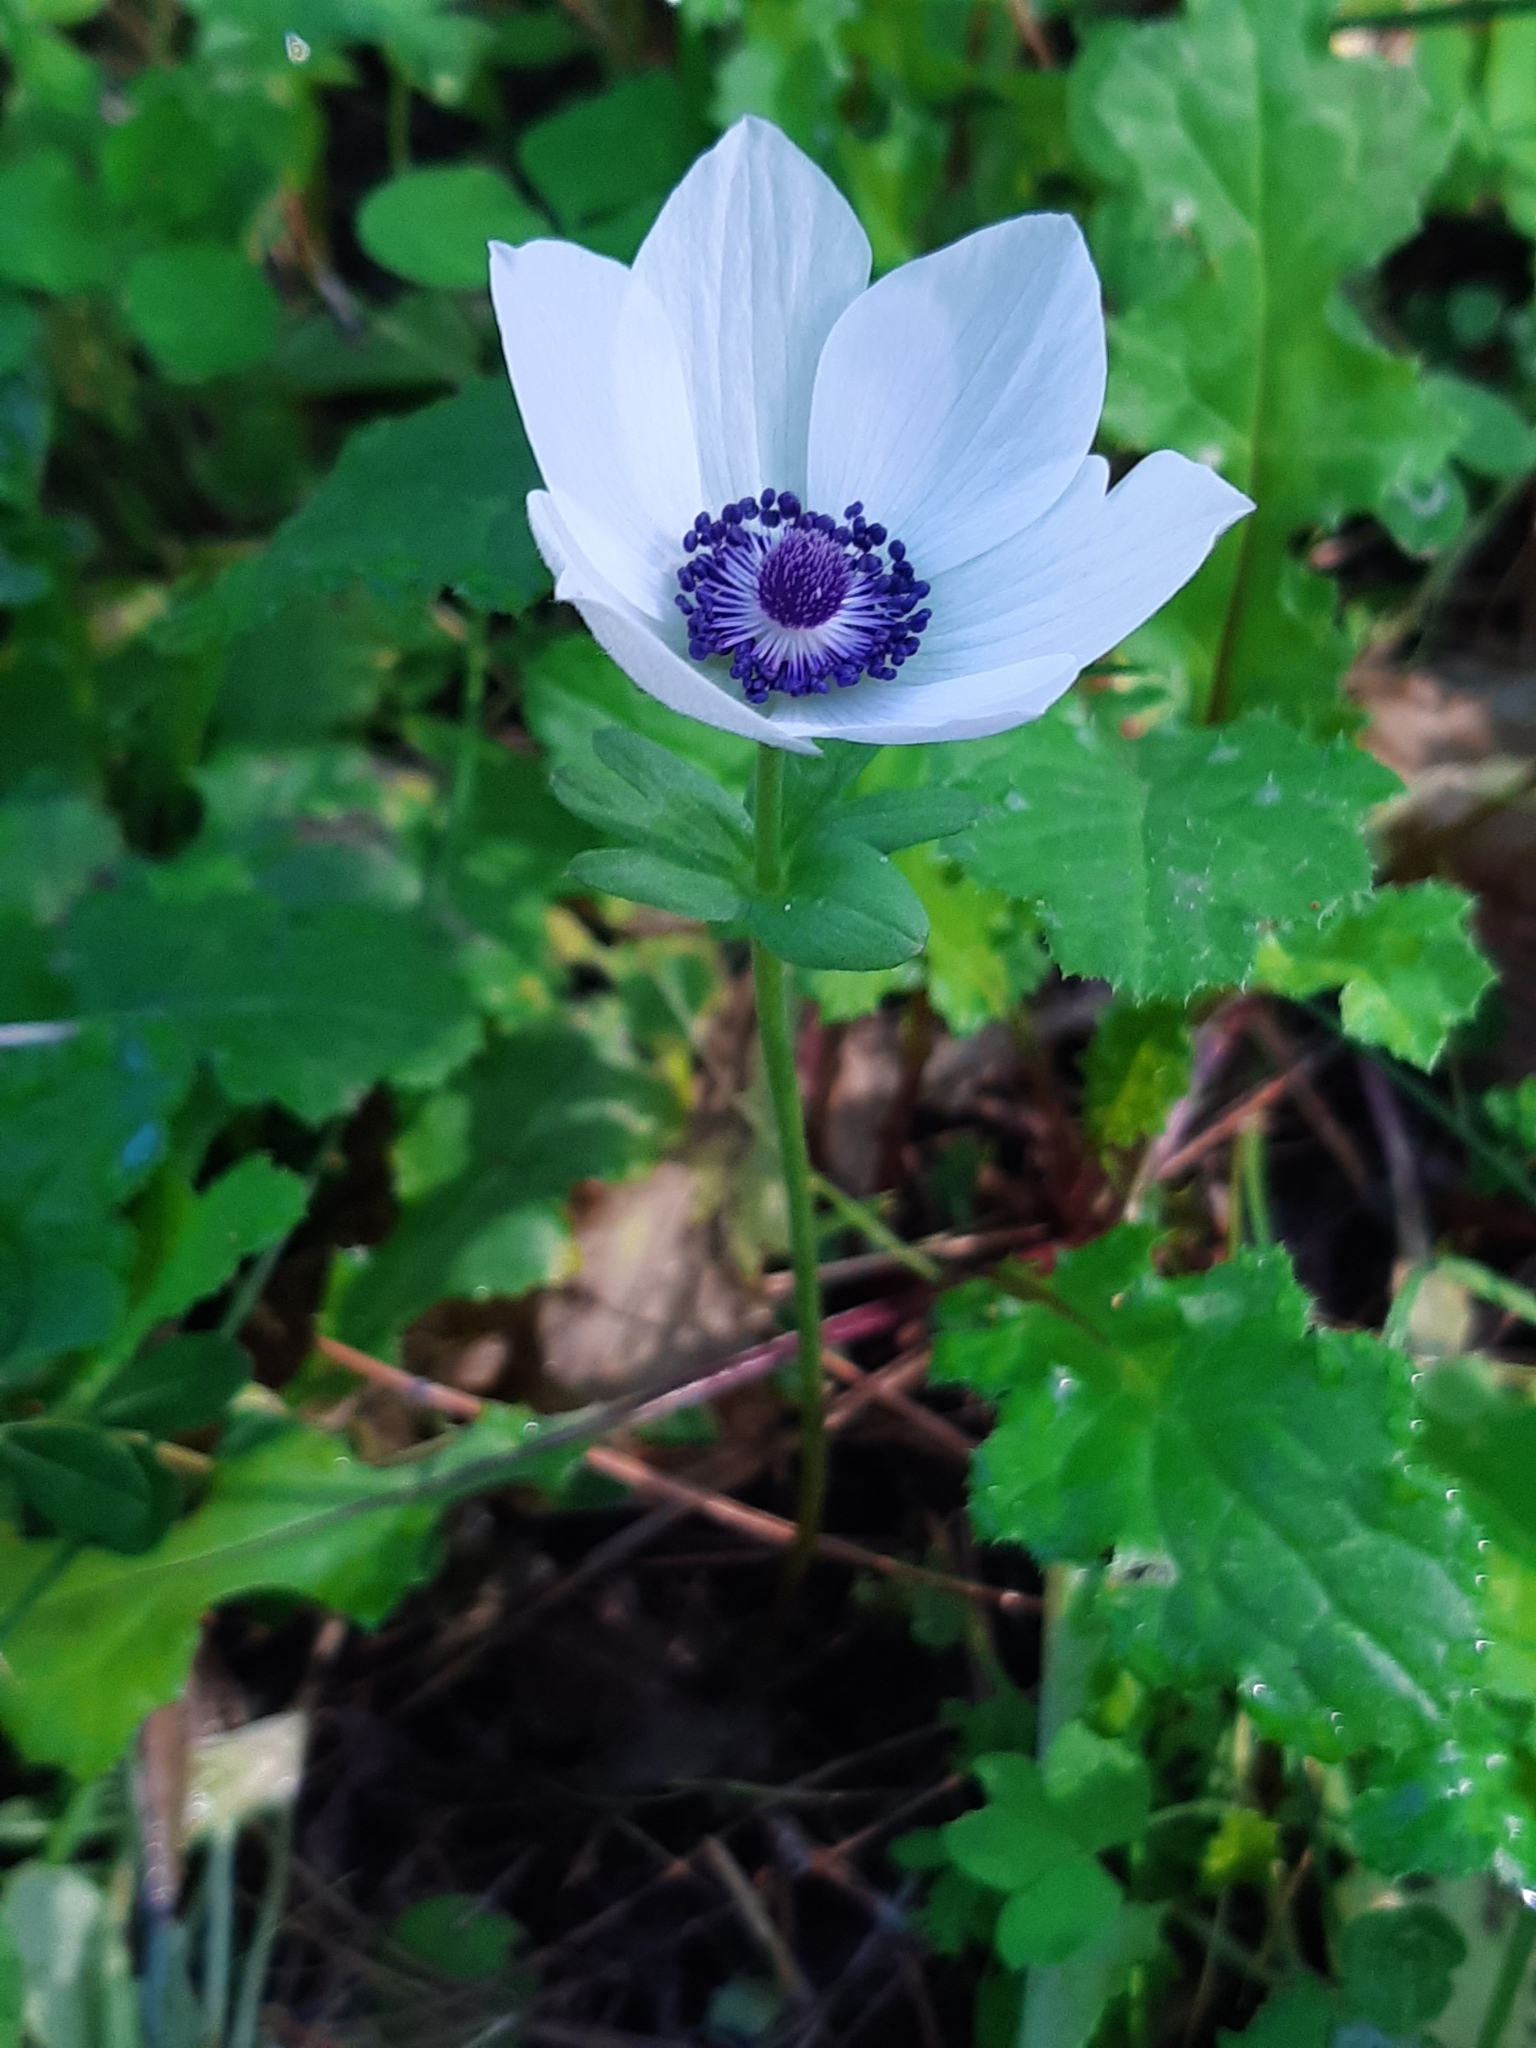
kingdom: Plantae
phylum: Tracheophyta
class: Magnoliopsida
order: Ranunculales
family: Ranunculaceae
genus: Anemone
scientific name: Anemone coronaria
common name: Poppy anemone
